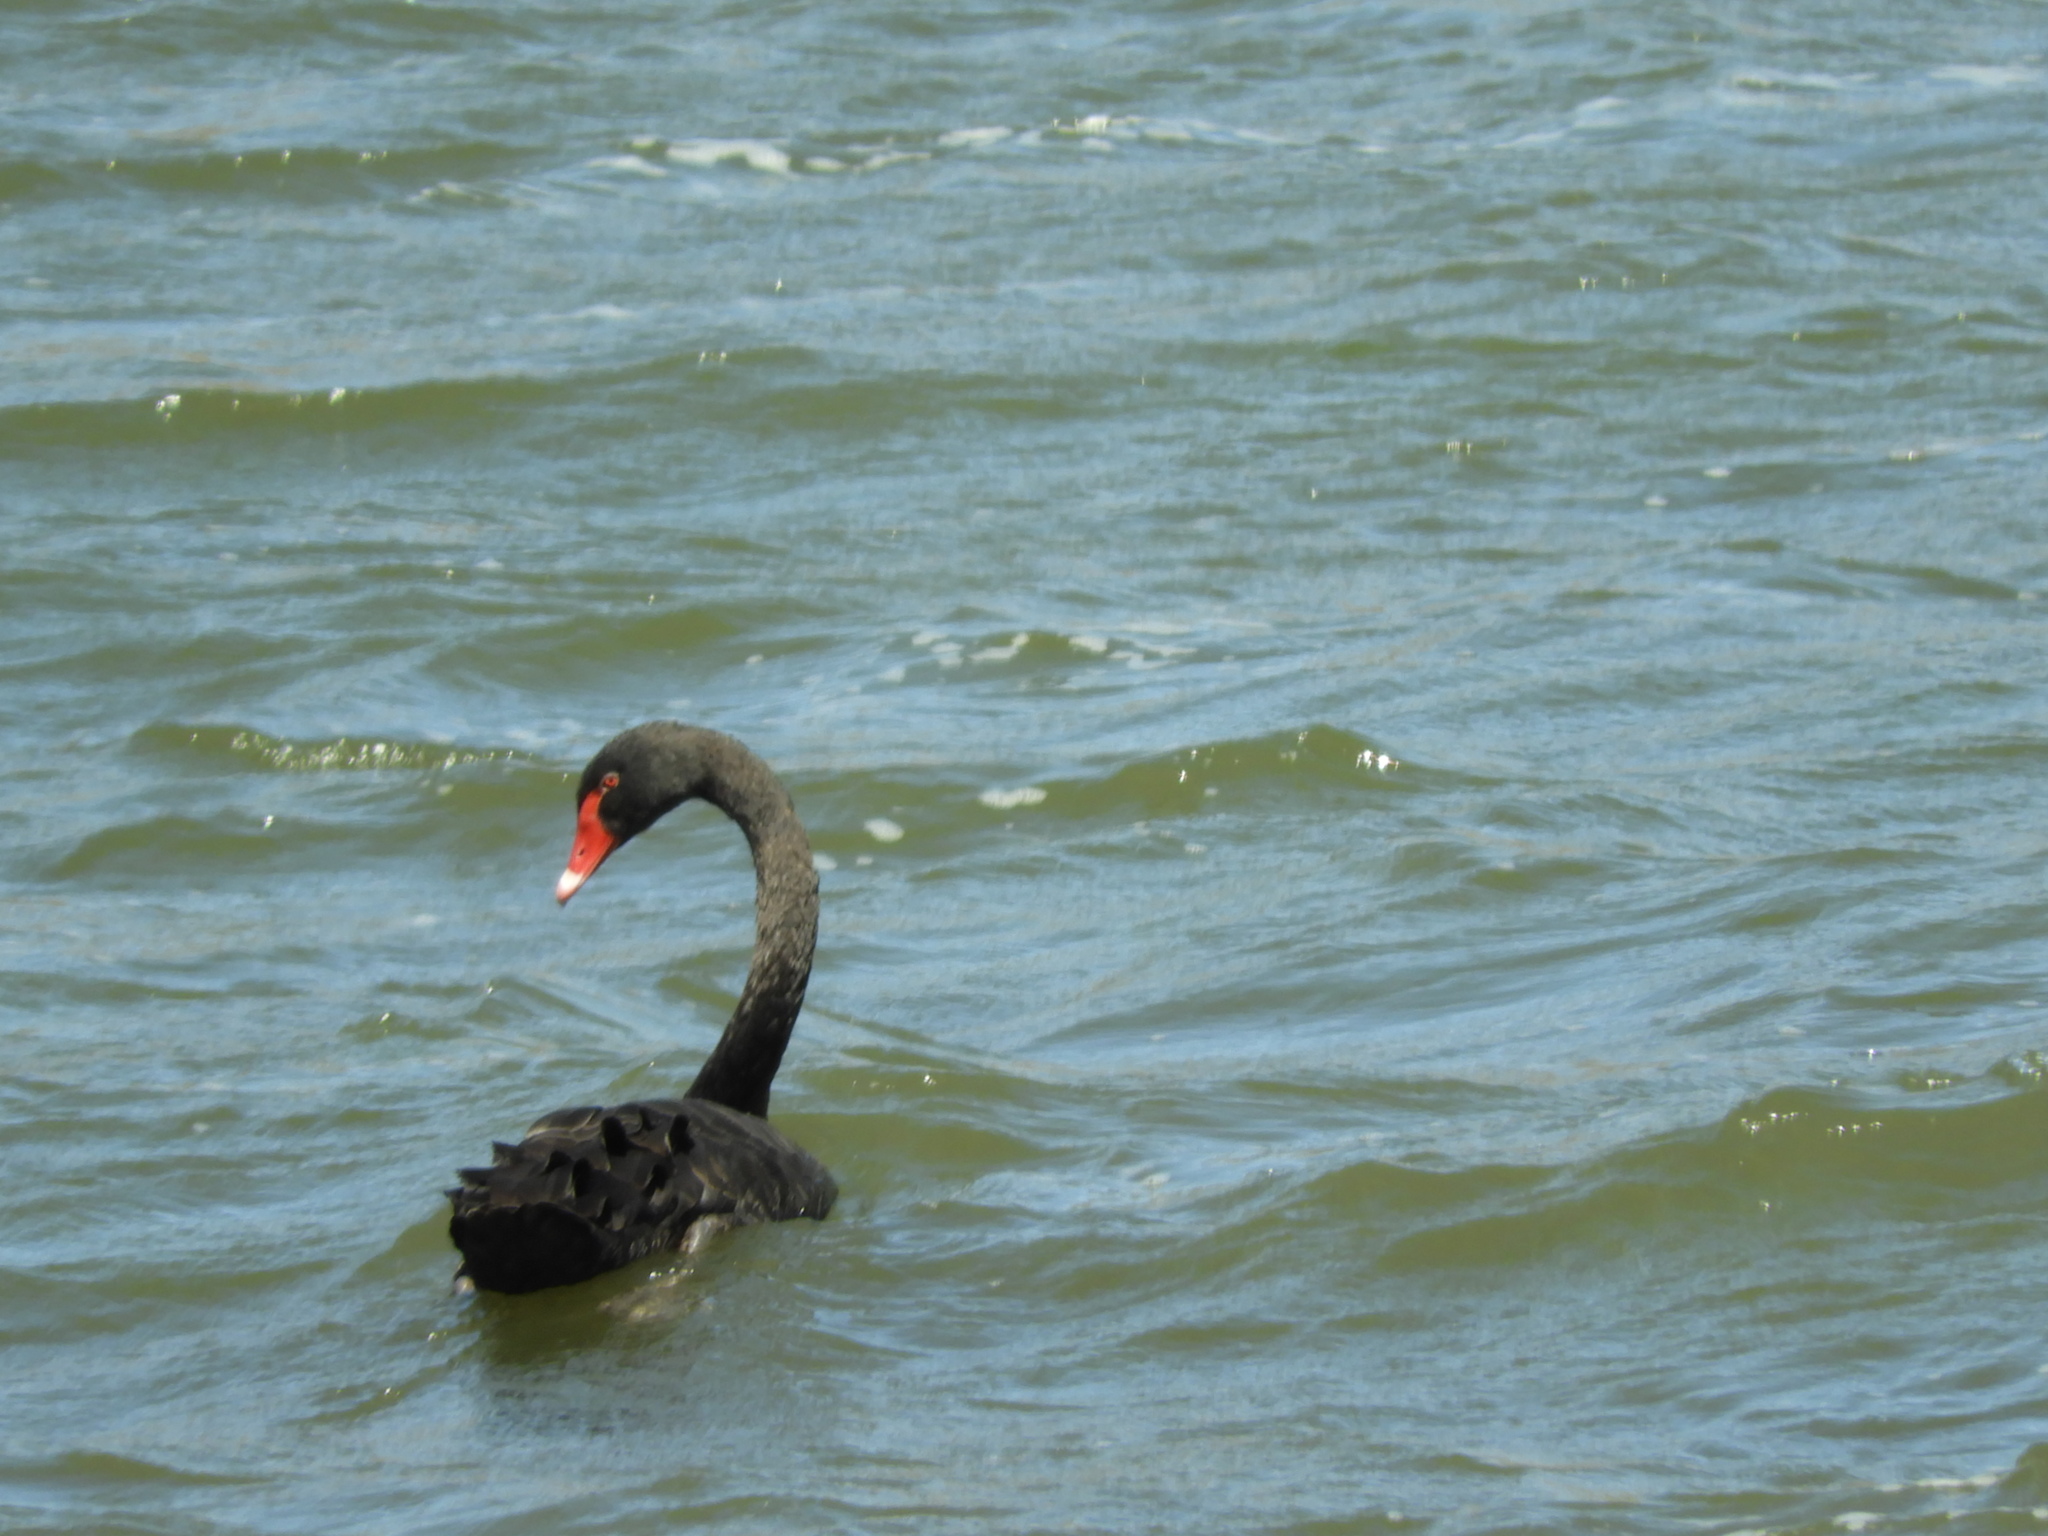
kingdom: Animalia
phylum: Chordata
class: Aves
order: Anseriformes
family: Anatidae
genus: Cygnus
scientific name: Cygnus atratus
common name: Black swan
